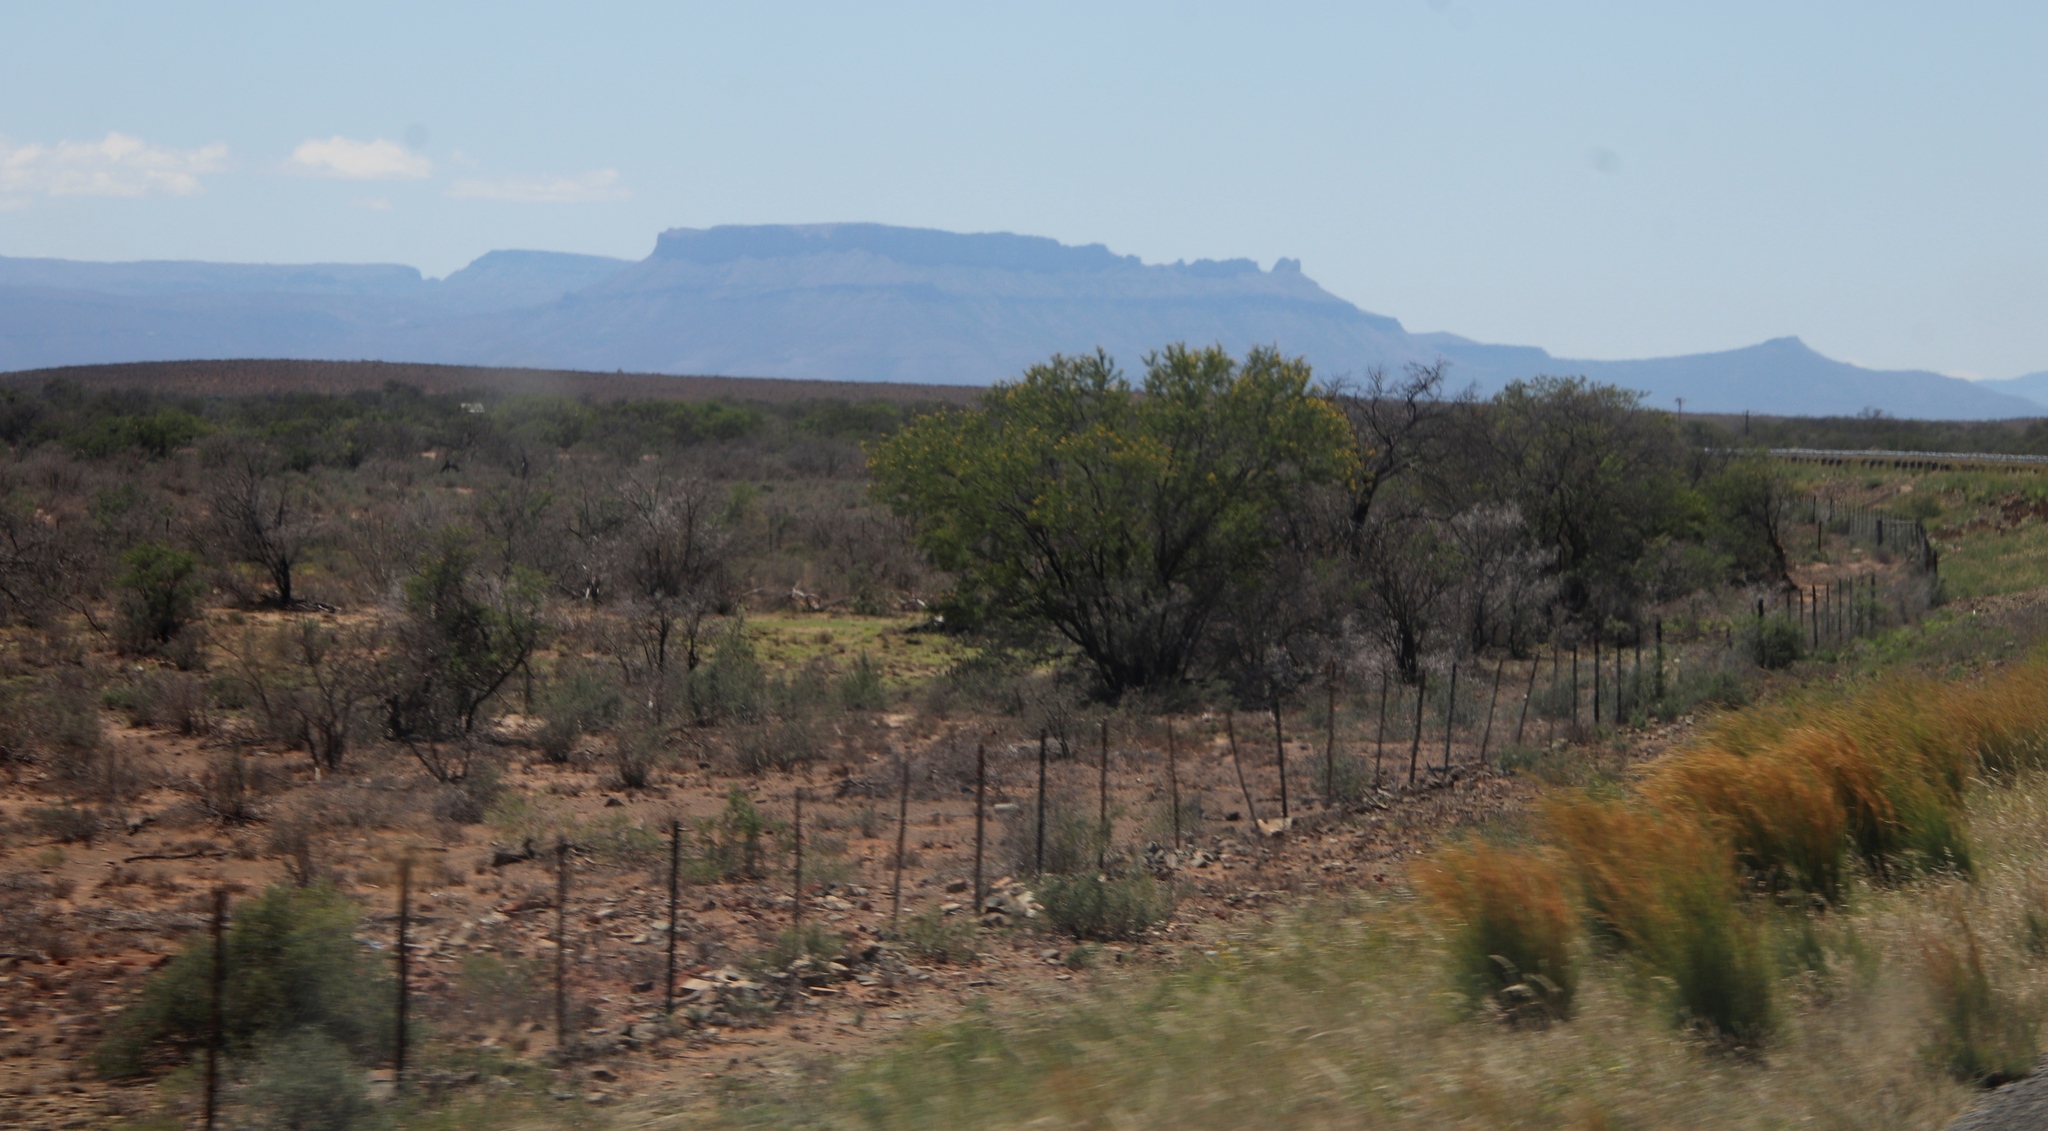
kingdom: Plantae
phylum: Tracheophyta
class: Magnoliopsida
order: Fabales
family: Fabaceae
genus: Vachellia
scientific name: Vachellia karroo
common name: Sweet thorn
